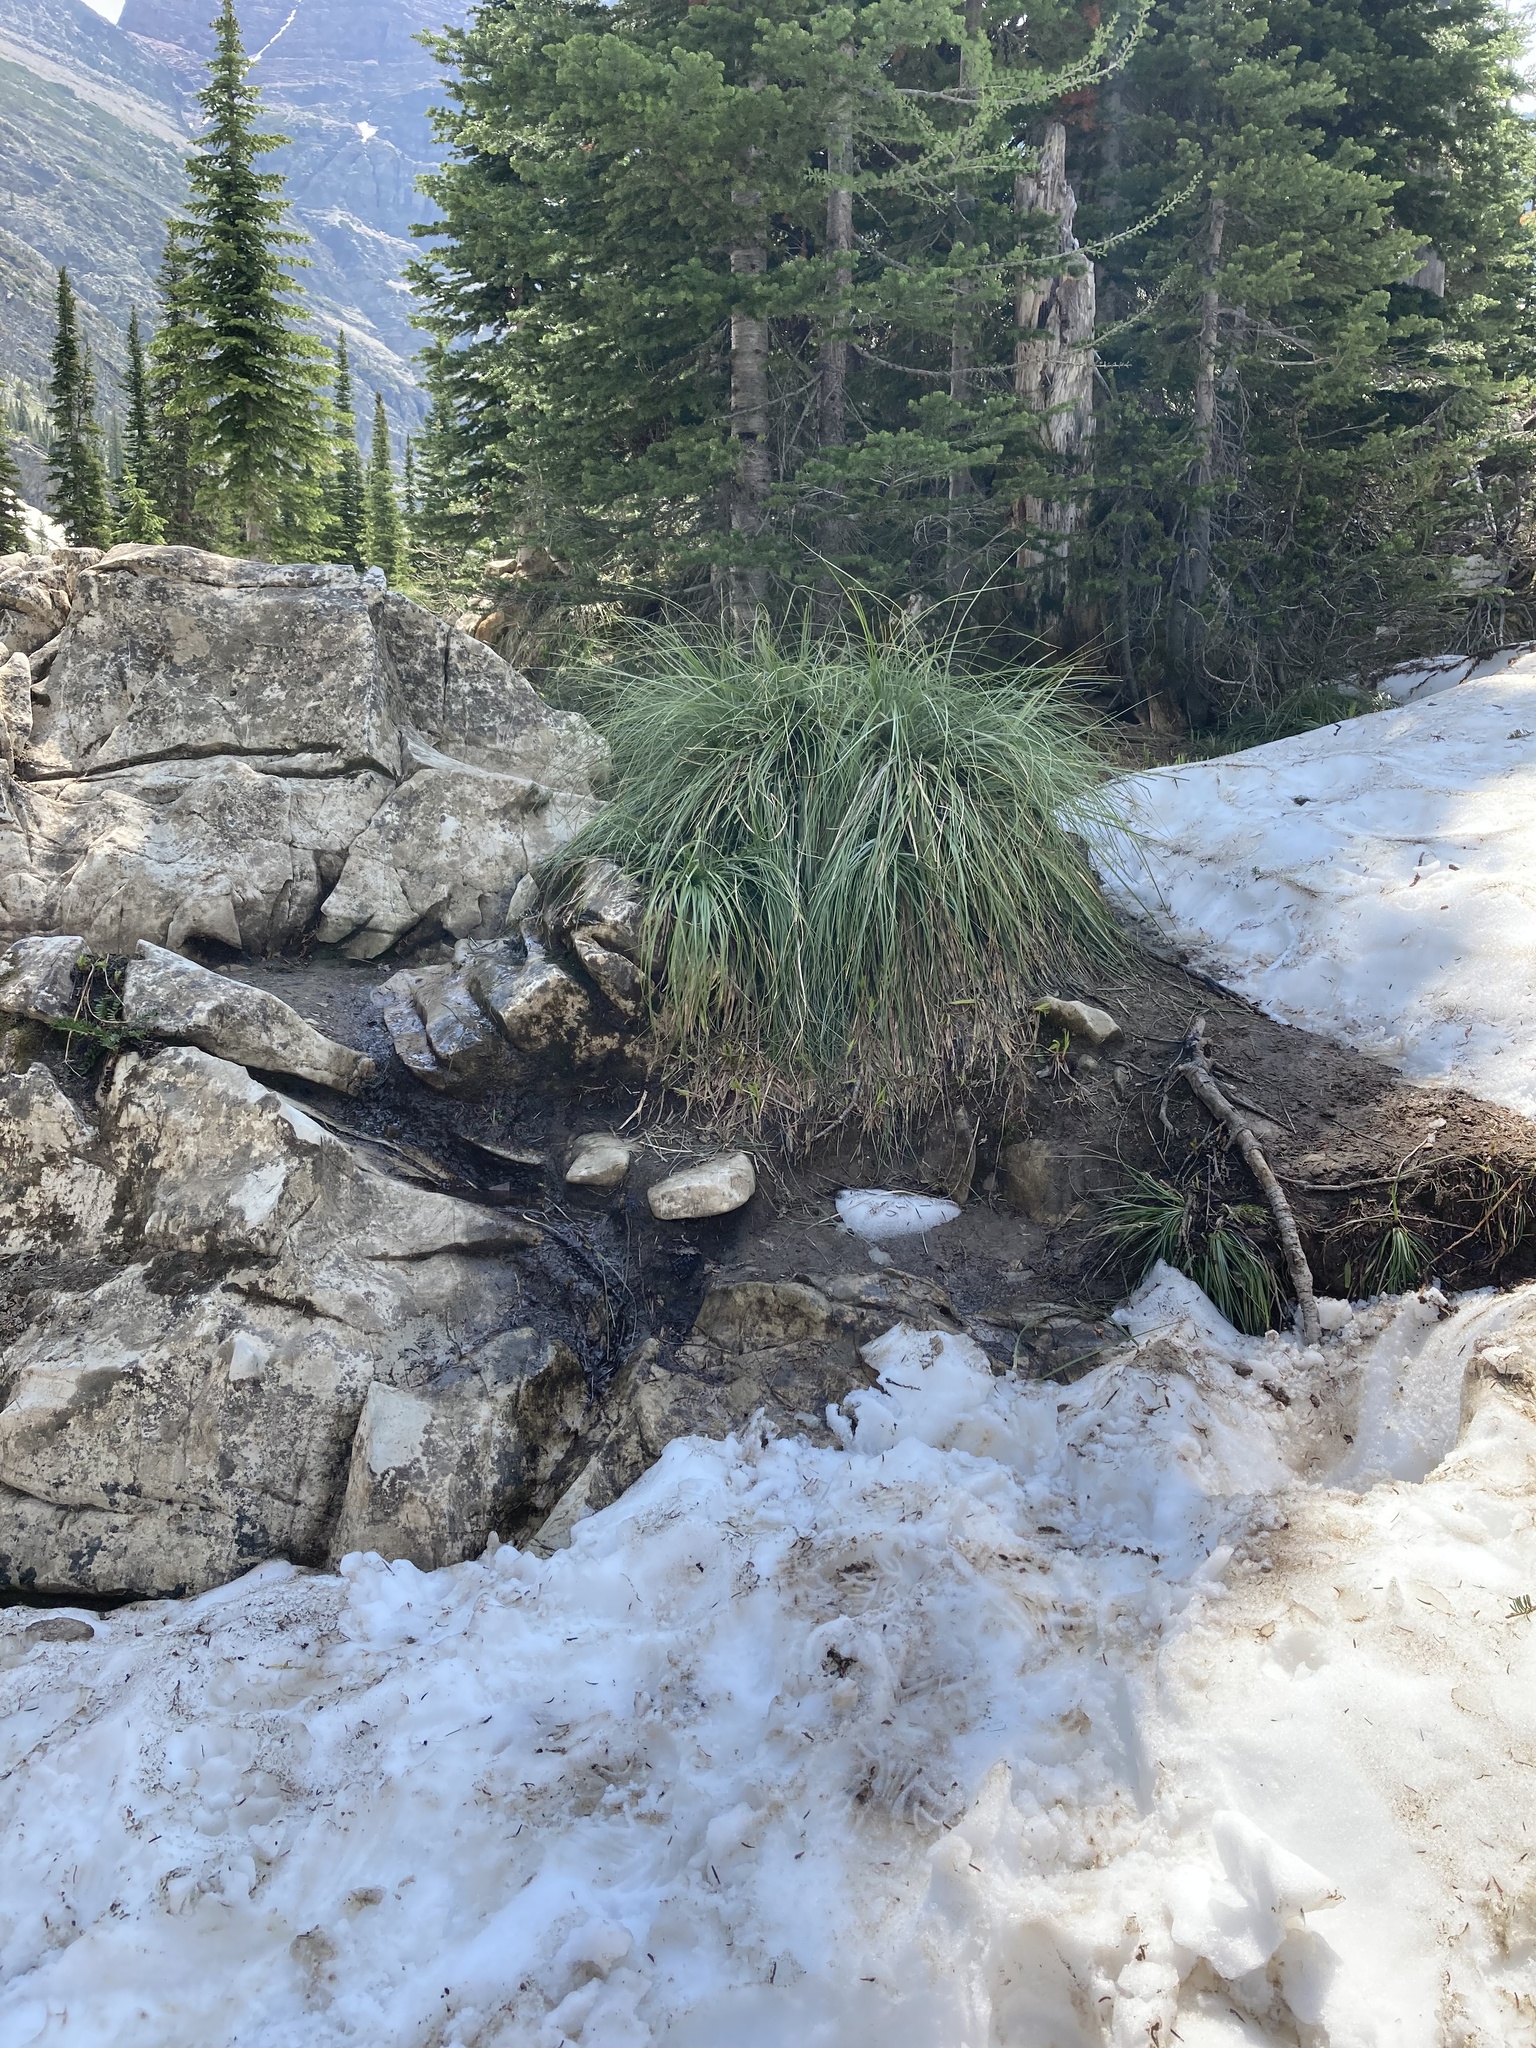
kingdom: Plantae
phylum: Tracheophyta
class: Liliopsida
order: Liliales
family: Melanthiaceae
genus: Xerophyllum
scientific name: Xerophyllum tenax
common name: Bear-grass
